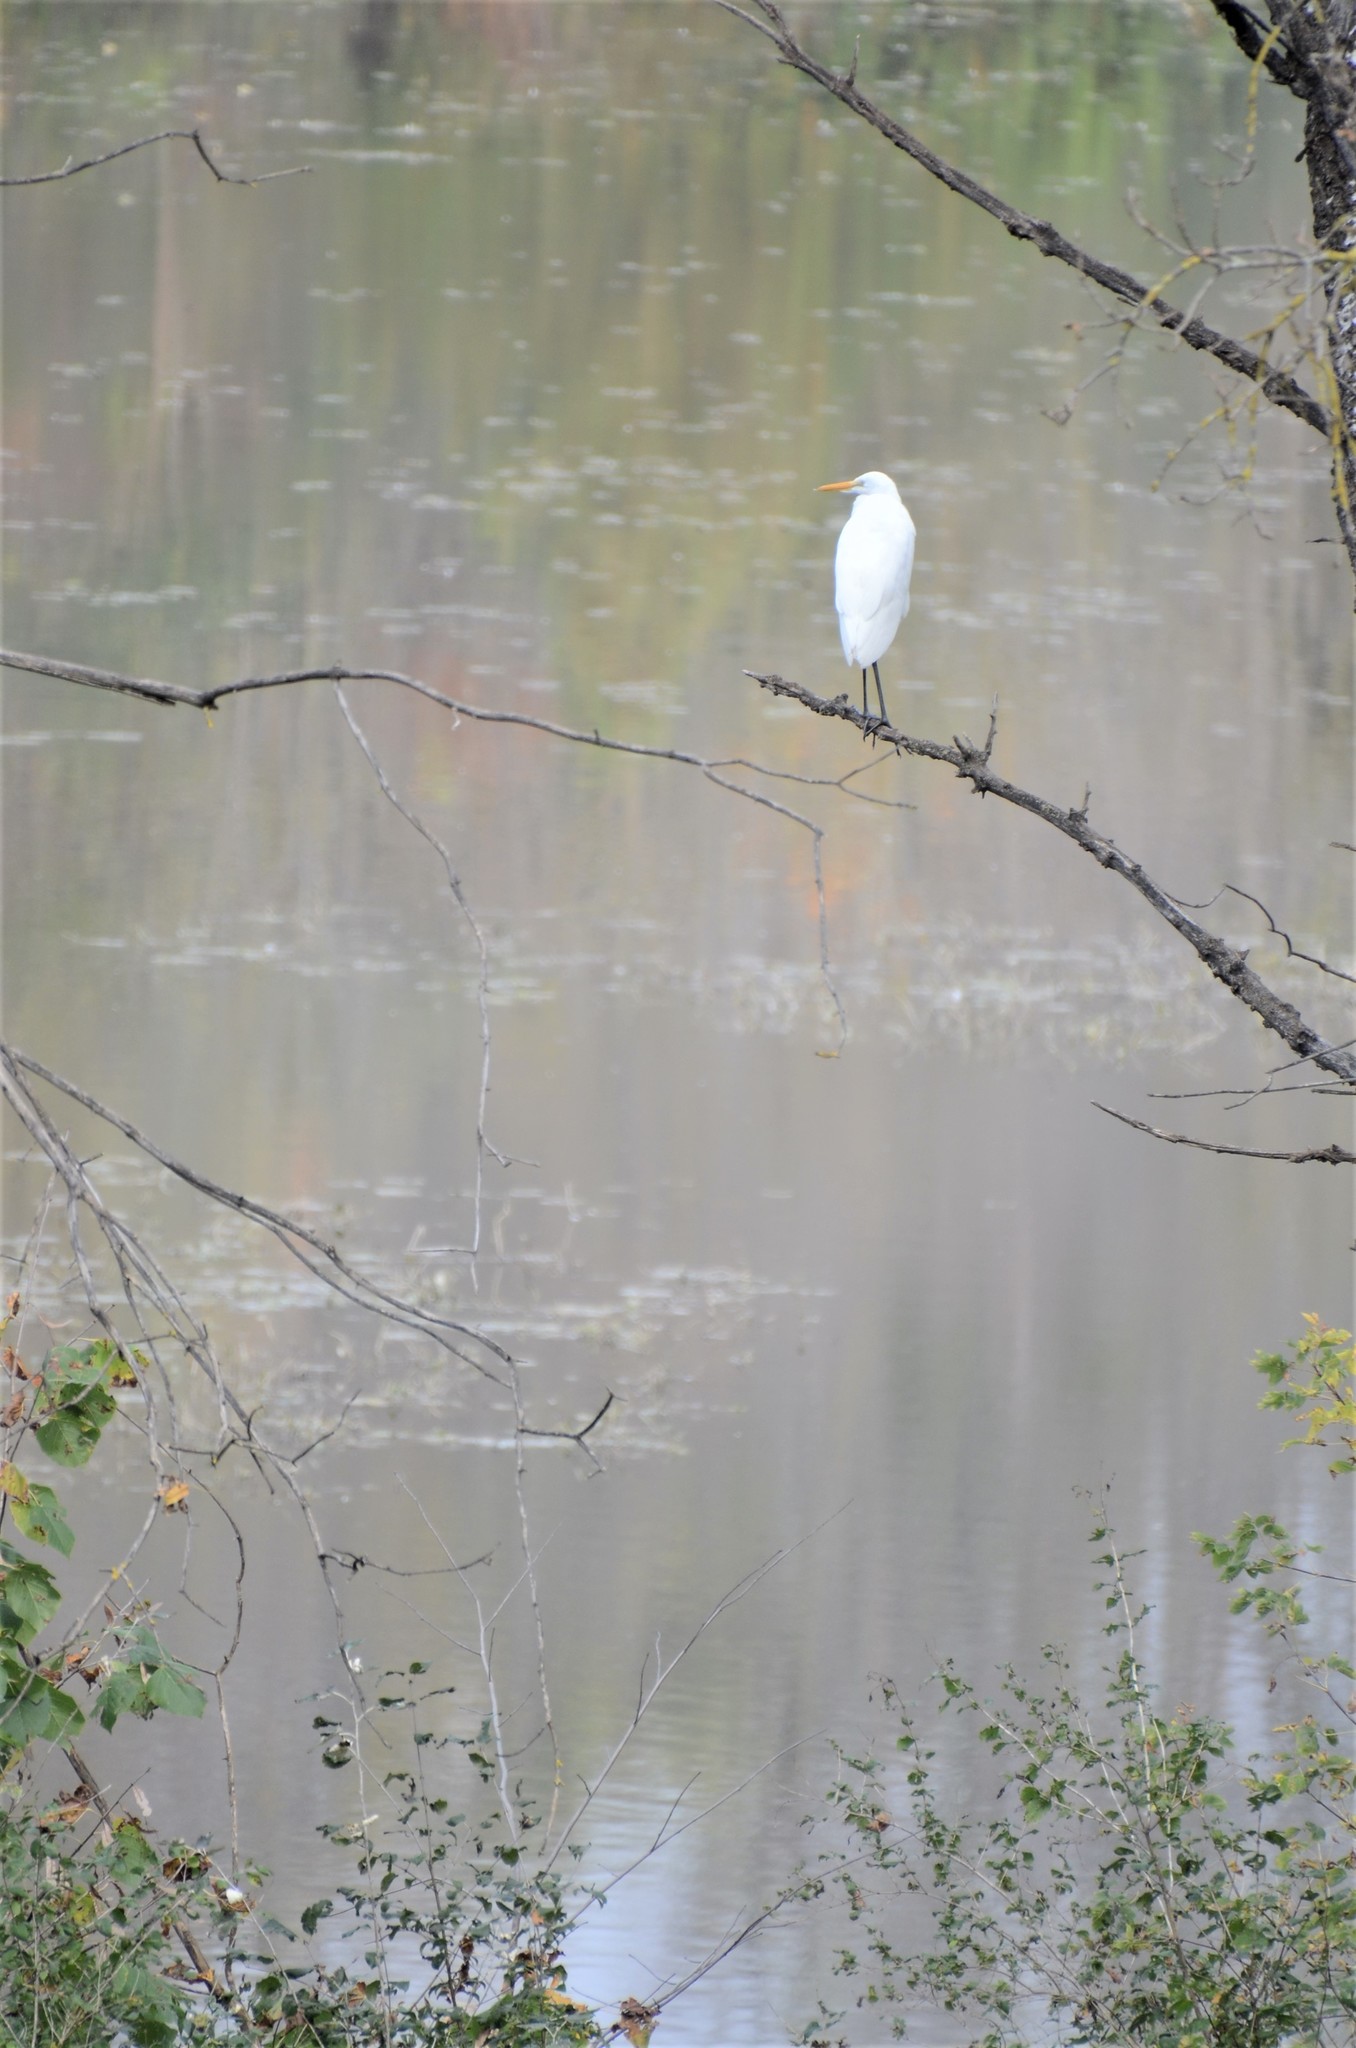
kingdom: Animalia
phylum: Chordata
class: Aves
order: Pelecaniformes
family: Ardeidae
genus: Ardea
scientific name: Ardea alba
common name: Great egret
